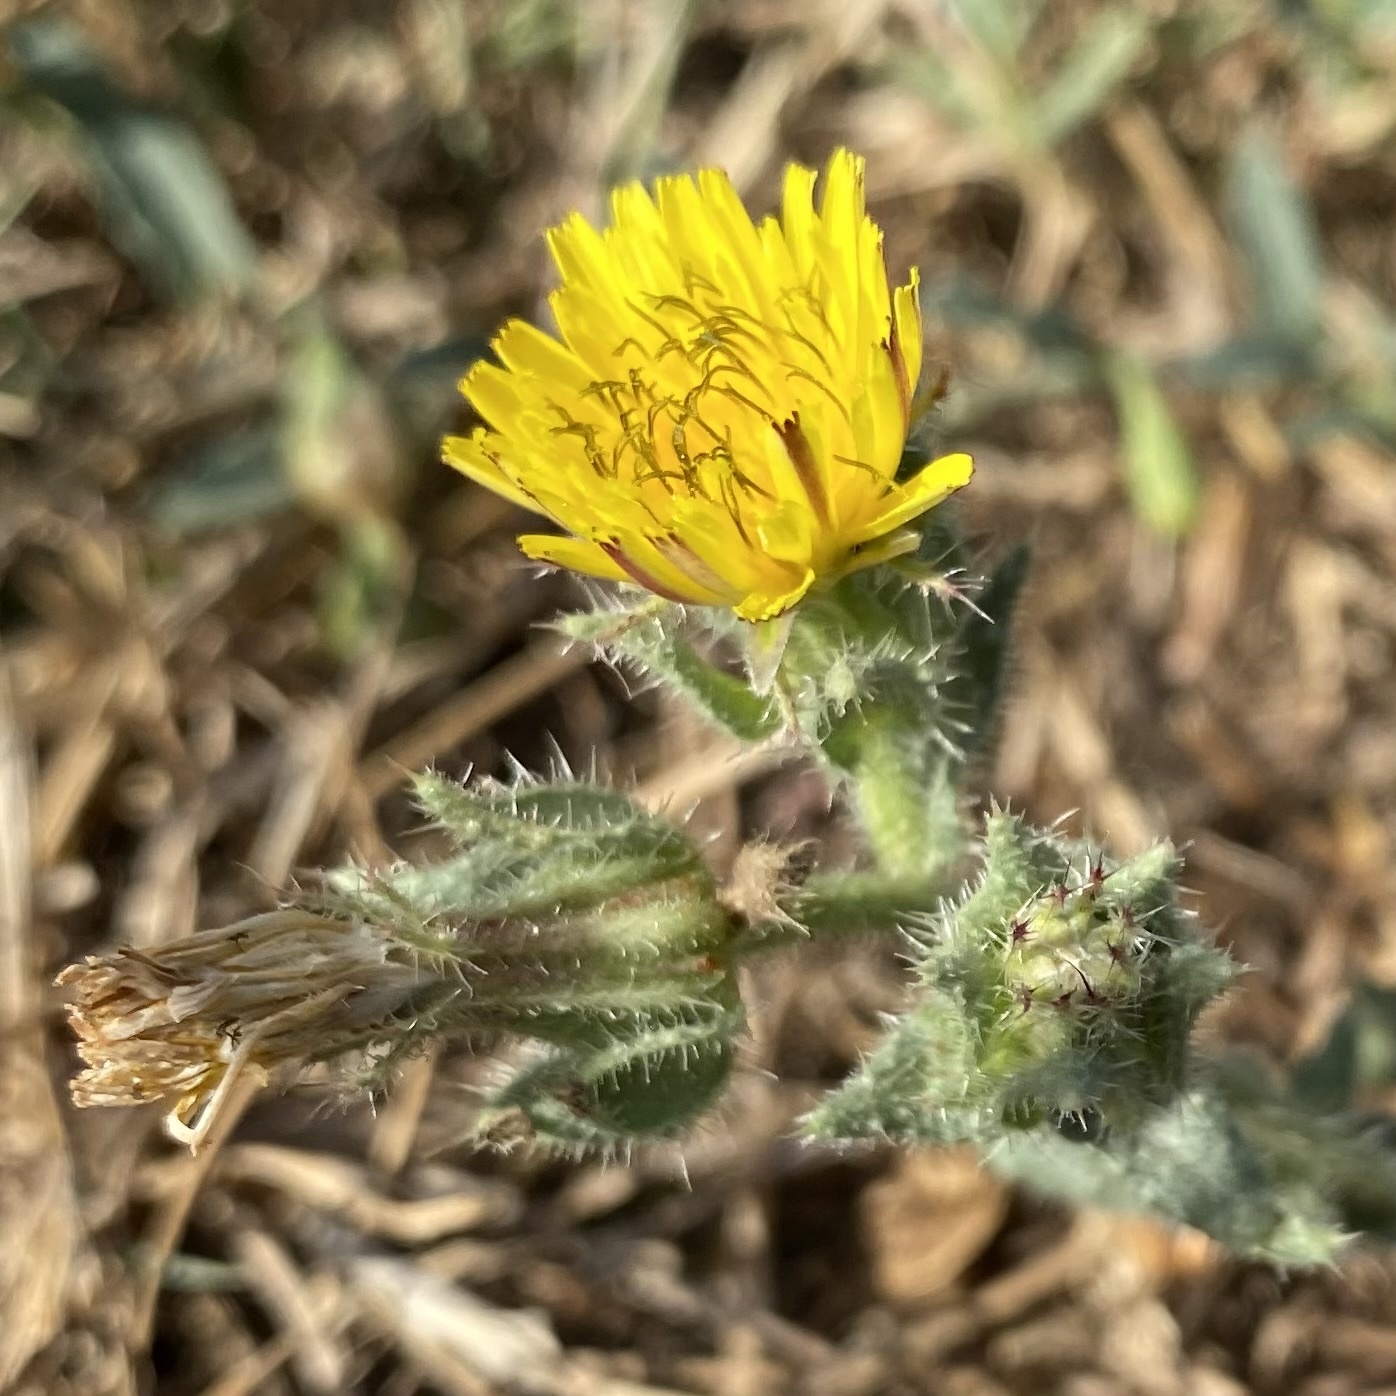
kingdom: Plantae
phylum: Tracheophyta
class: Magnoliopsida
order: Asterales
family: Asteraceae
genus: Helminthotheca
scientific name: Helminthotheca echioides
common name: Ox-tongue
